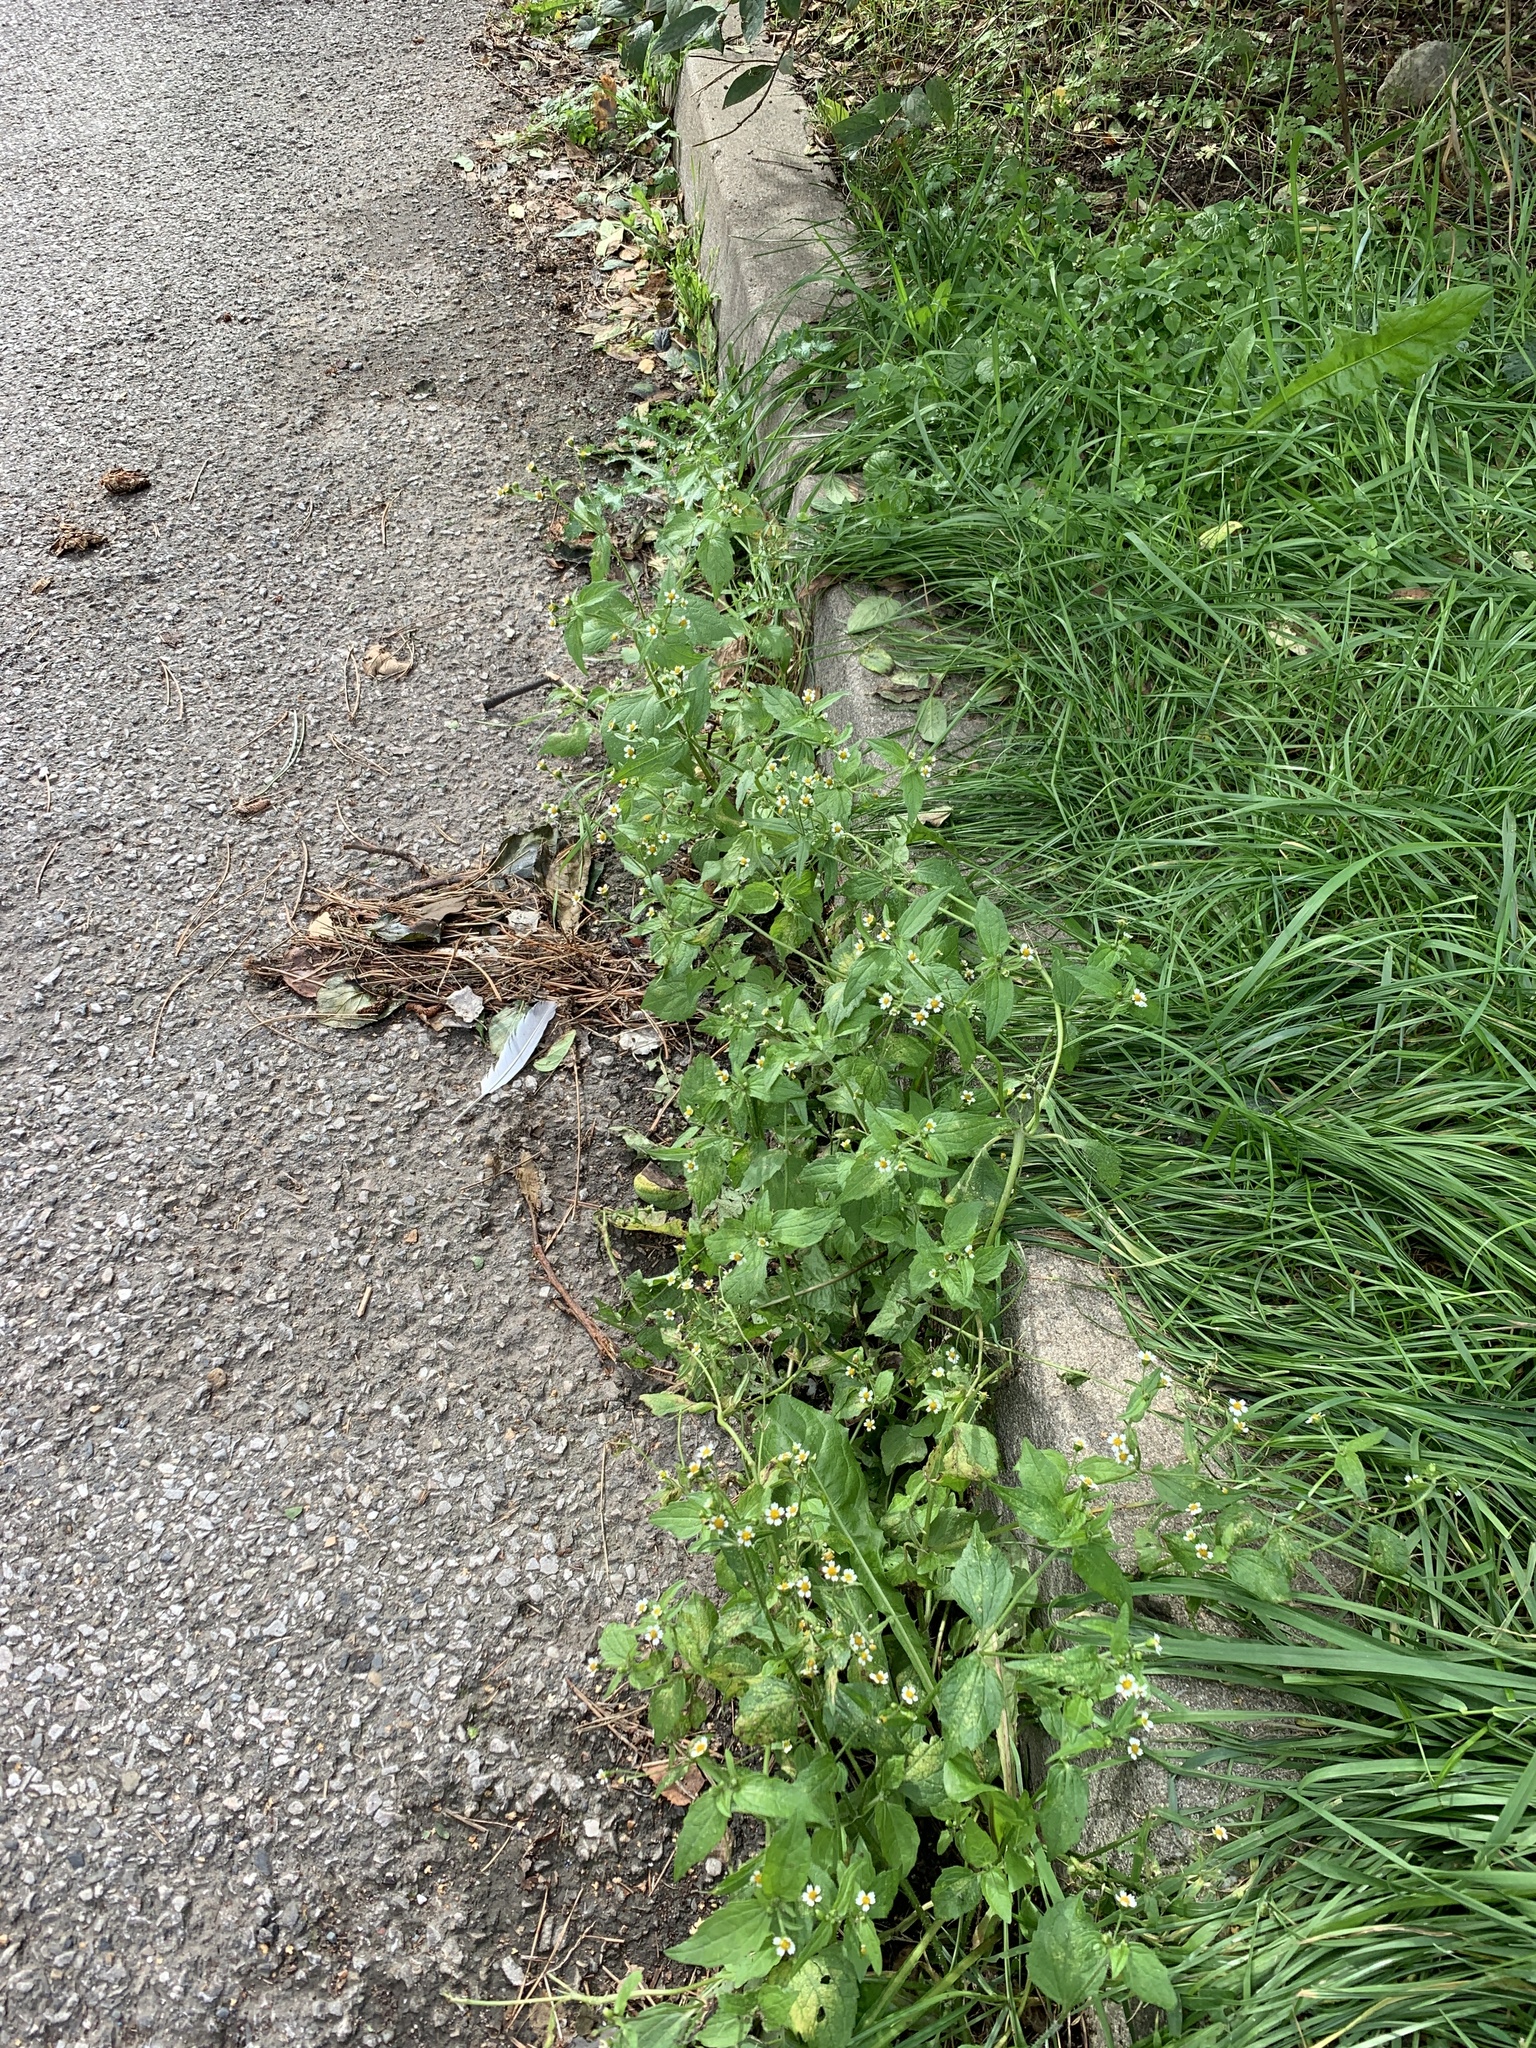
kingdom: Plantae
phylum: Tracheophyta
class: Magnoliopsida
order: Asterales
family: Asteraceae
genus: Galinsoga
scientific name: Galinsoga quadriradiata
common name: Shaggy soldier
